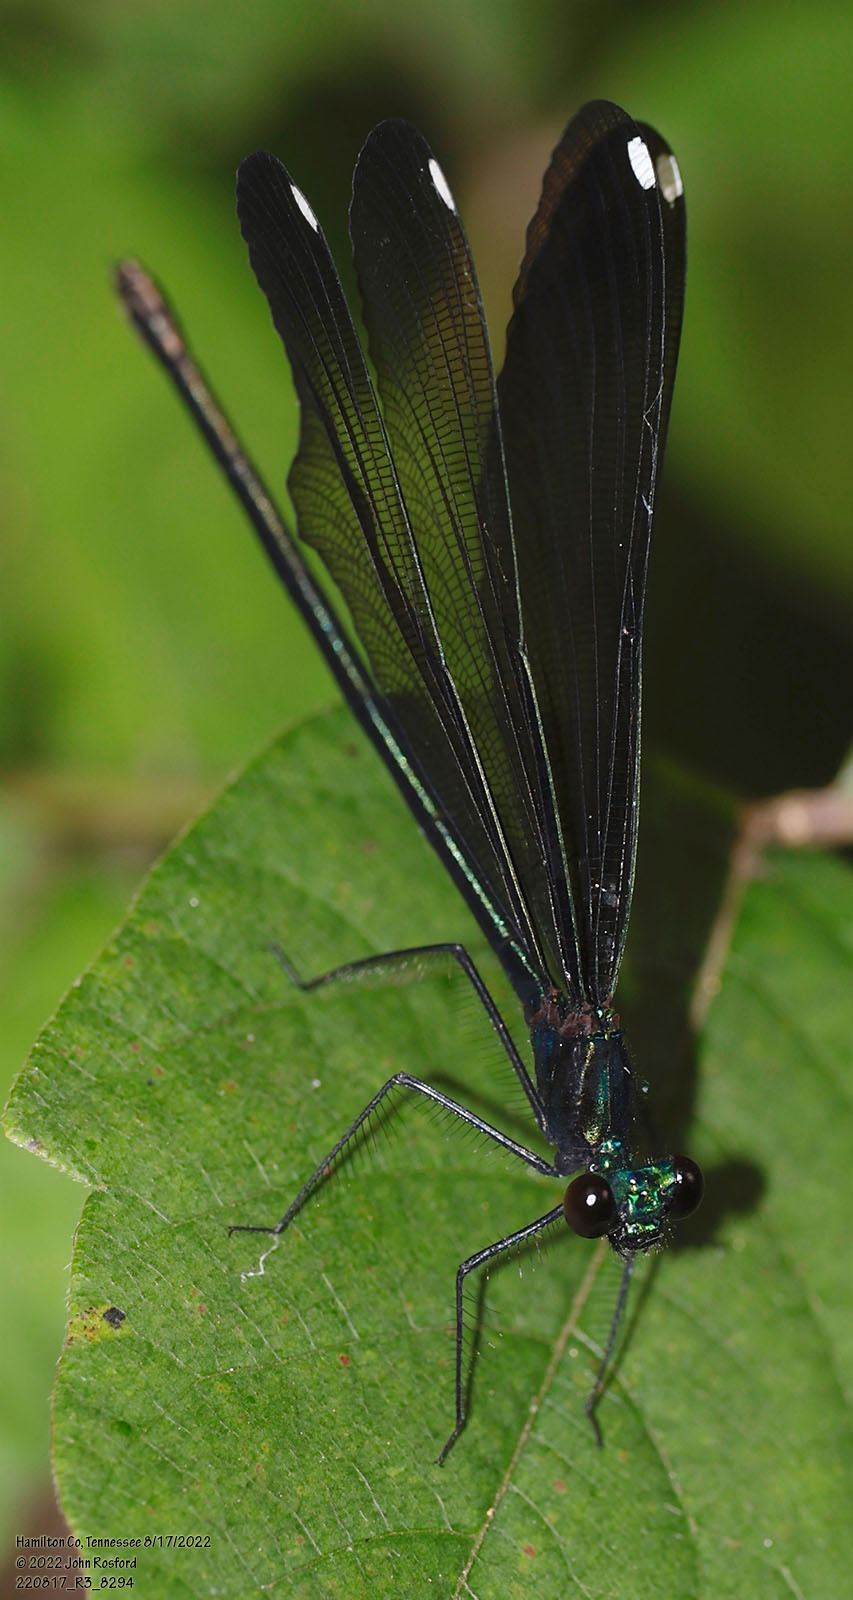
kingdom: Animalia
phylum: Arthropoda
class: Insecta
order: Odonata
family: Calopterygidae
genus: Calopteryx
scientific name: Calopteryx maculata
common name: Ebony jewelwing
